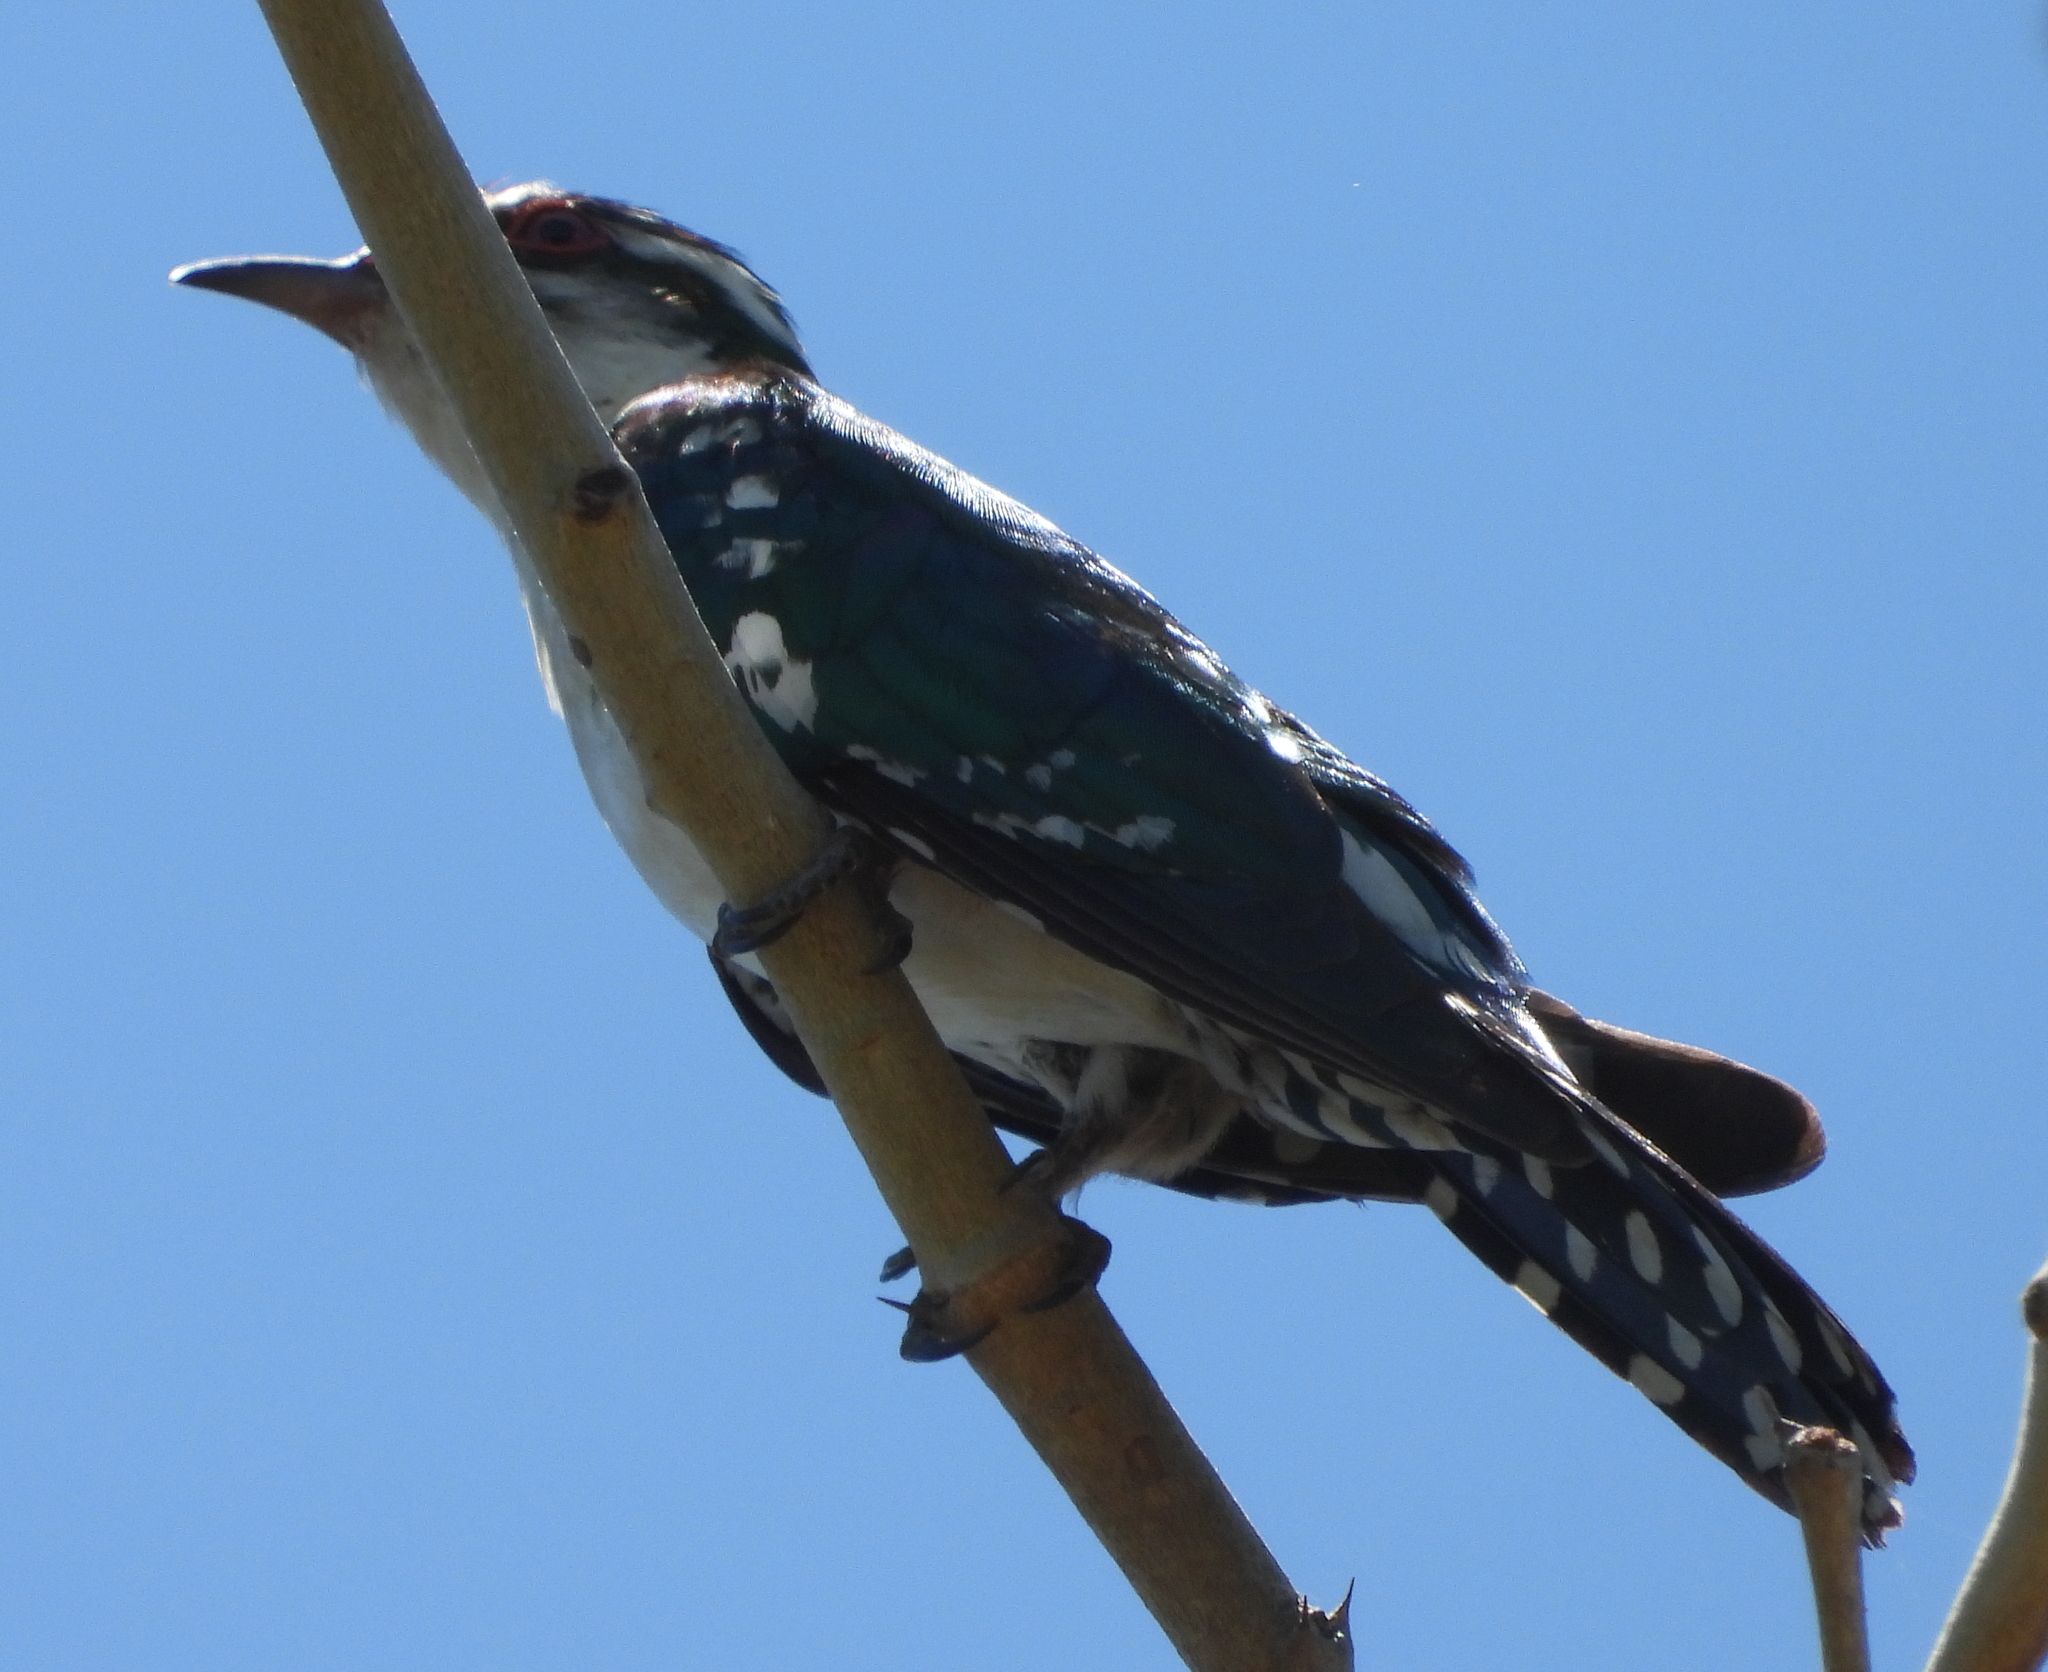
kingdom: Animalia
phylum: Chordata
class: Aves
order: Cuculiformes
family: Cuculidae
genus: Chrysococcyx
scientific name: Chrysococcyx caprius
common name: Diederik cuckoo
